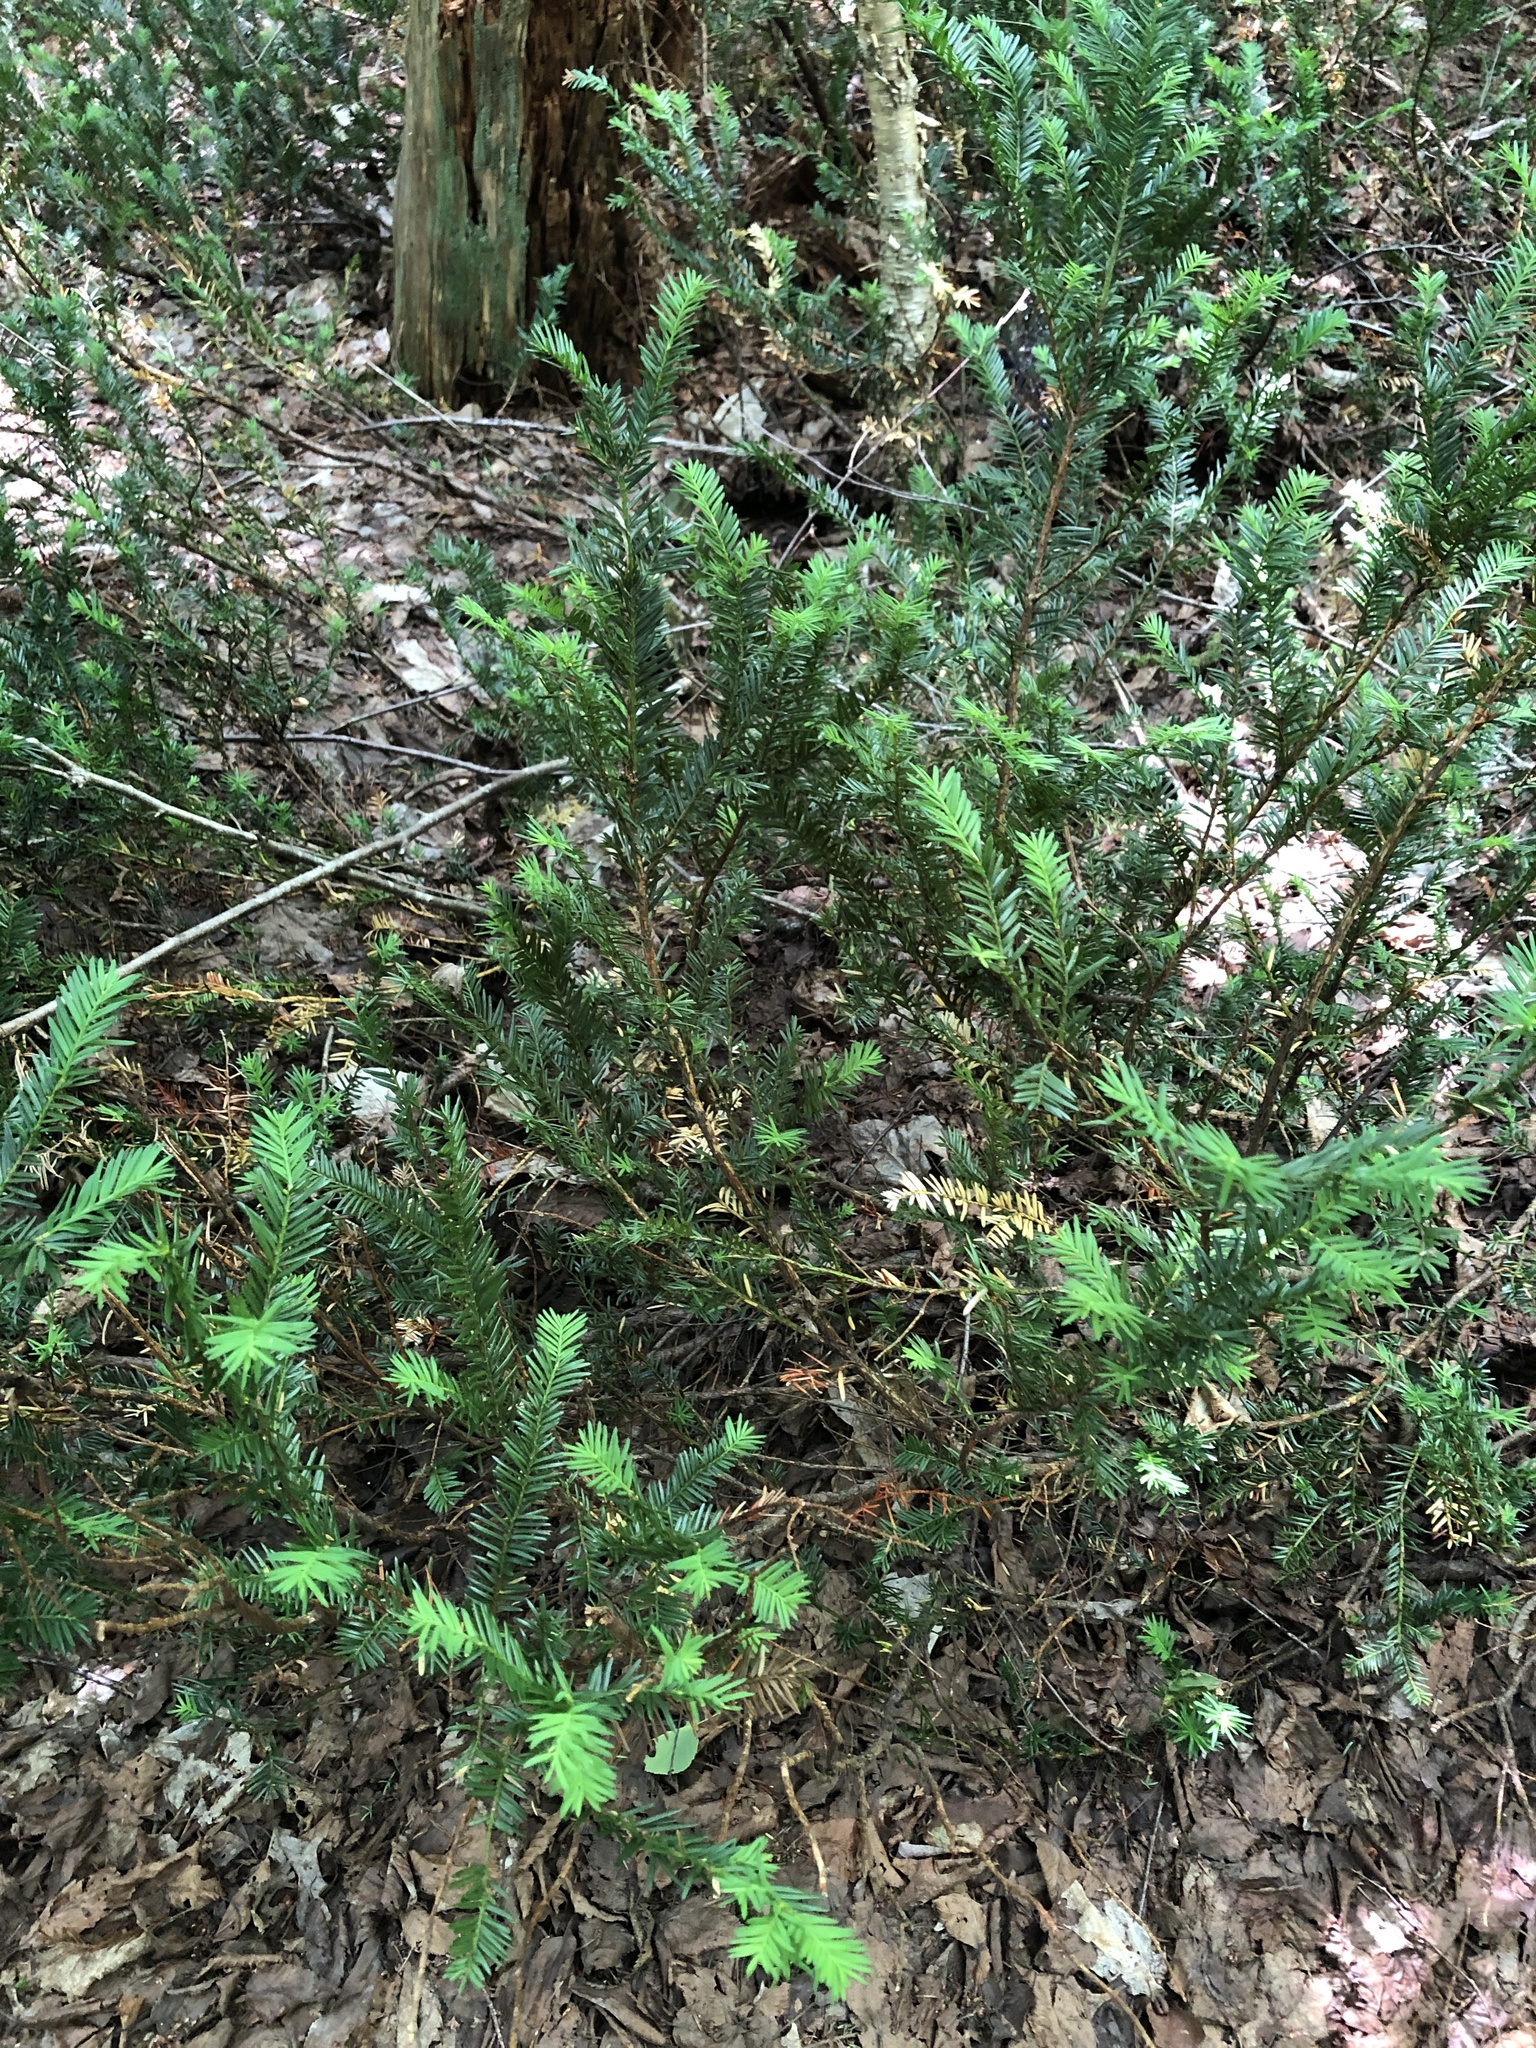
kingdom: Plantae
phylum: Tracheophyta
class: Pinopsida
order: Pinales
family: Taxaceae
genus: Taxus
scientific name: Taxus canadensis
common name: American yew
